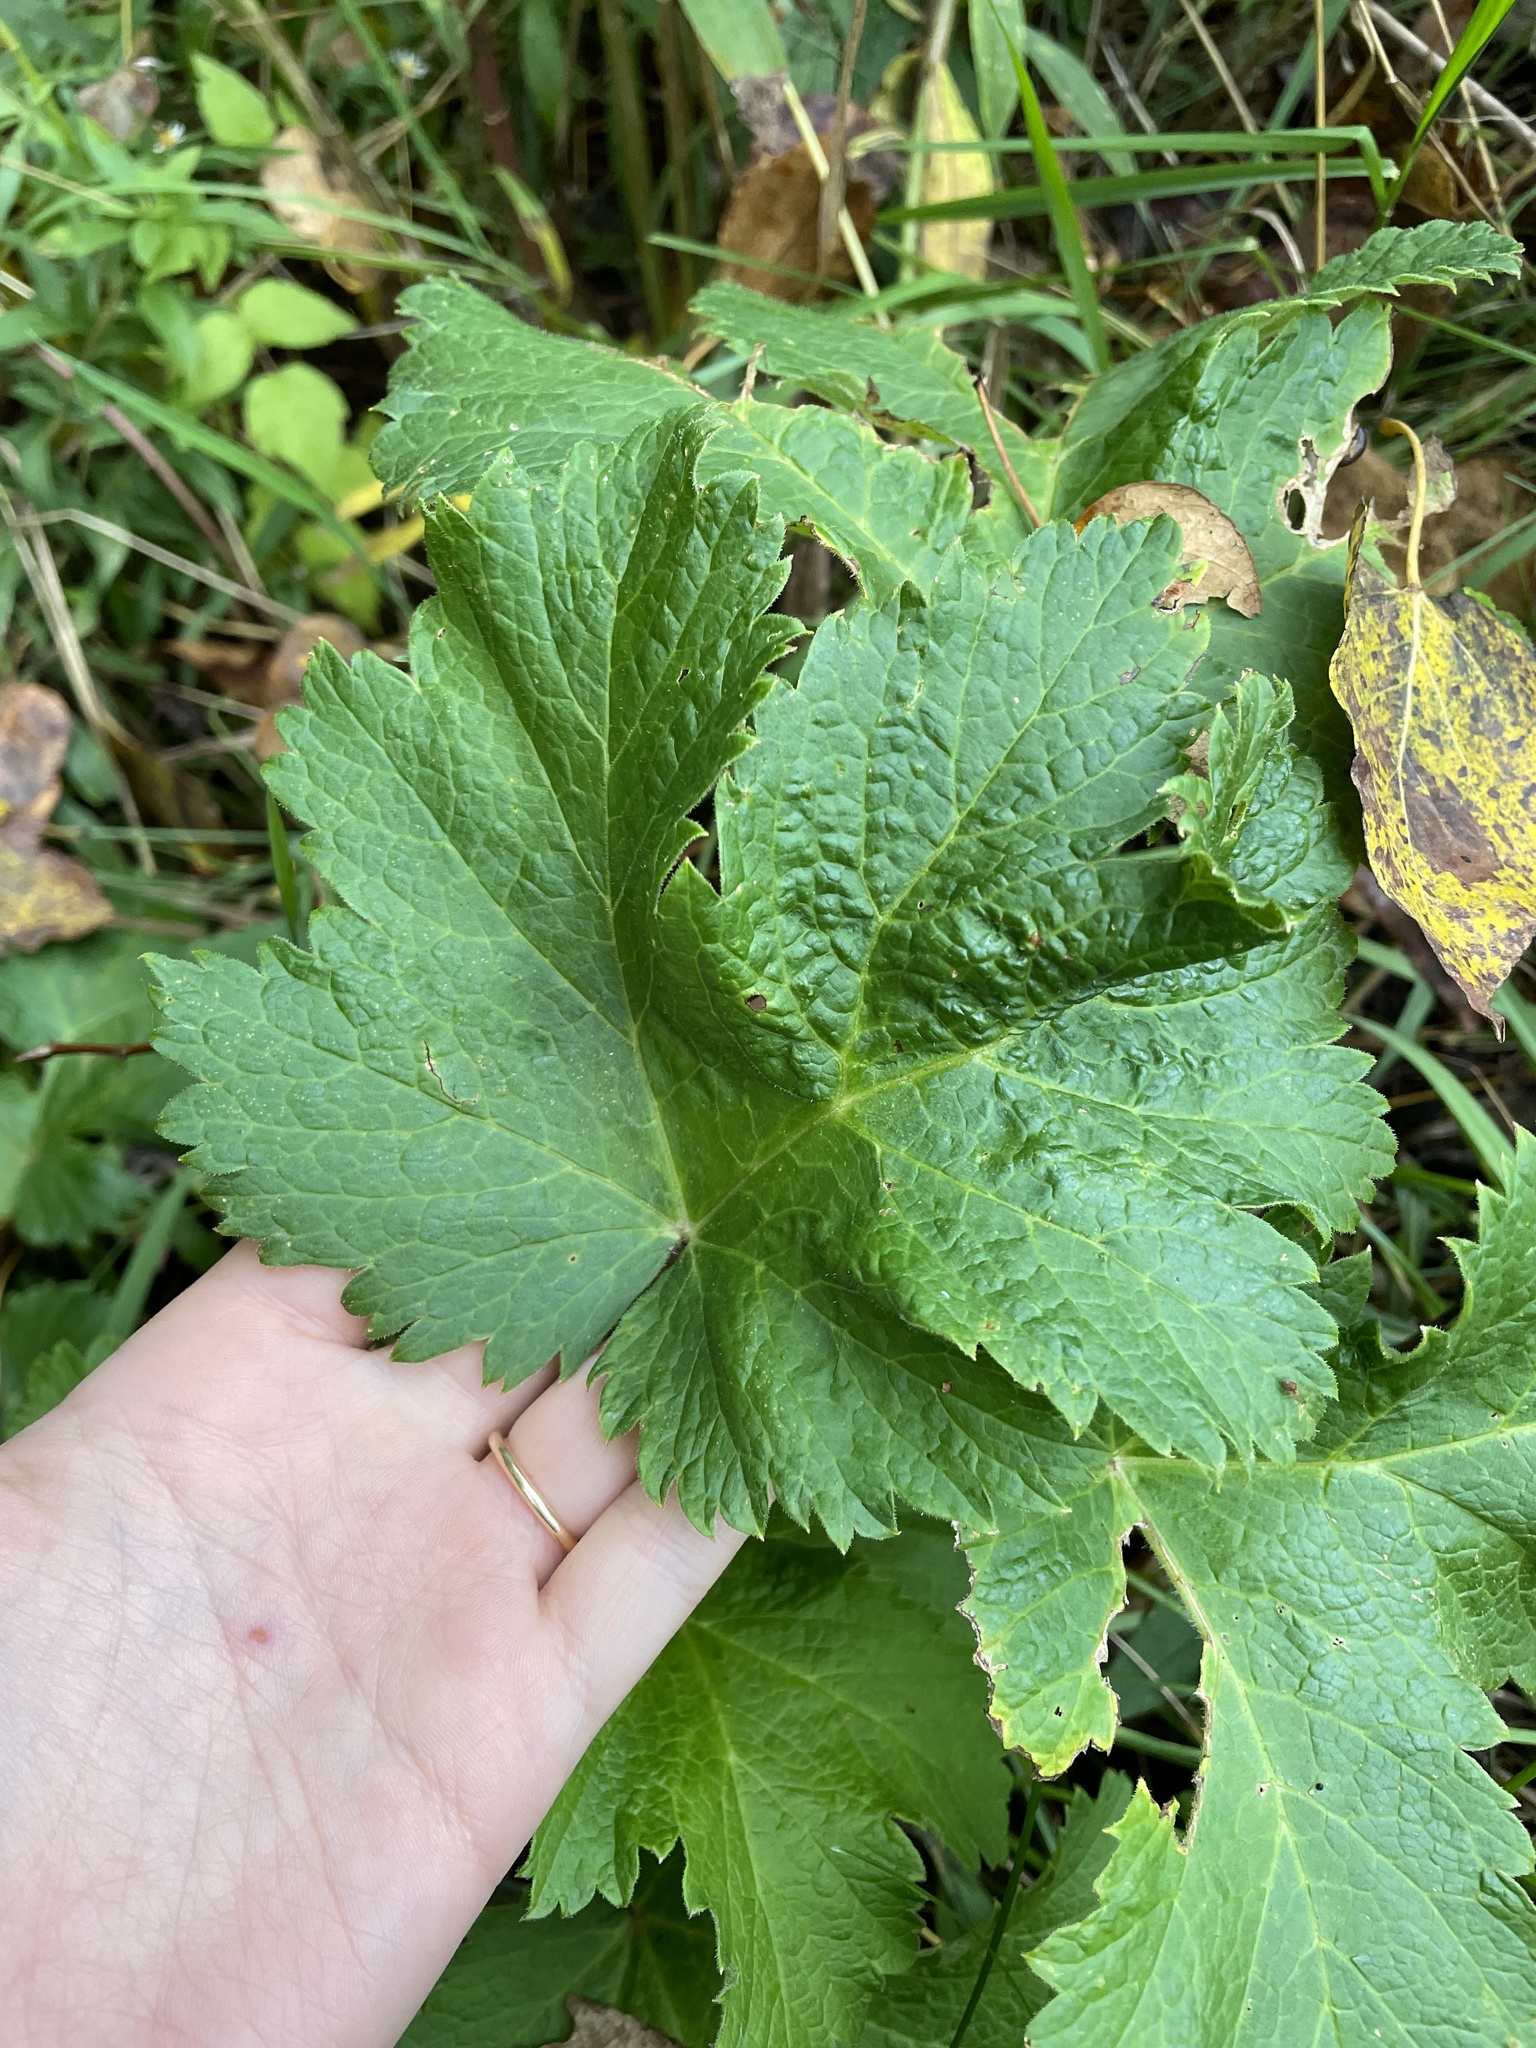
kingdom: Plantae
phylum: Tracheophyta
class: Magnoliopsida
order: Apiales
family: Apiaceae
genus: Heracleum
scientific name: Heracleum maximum
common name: American cow parsnip
